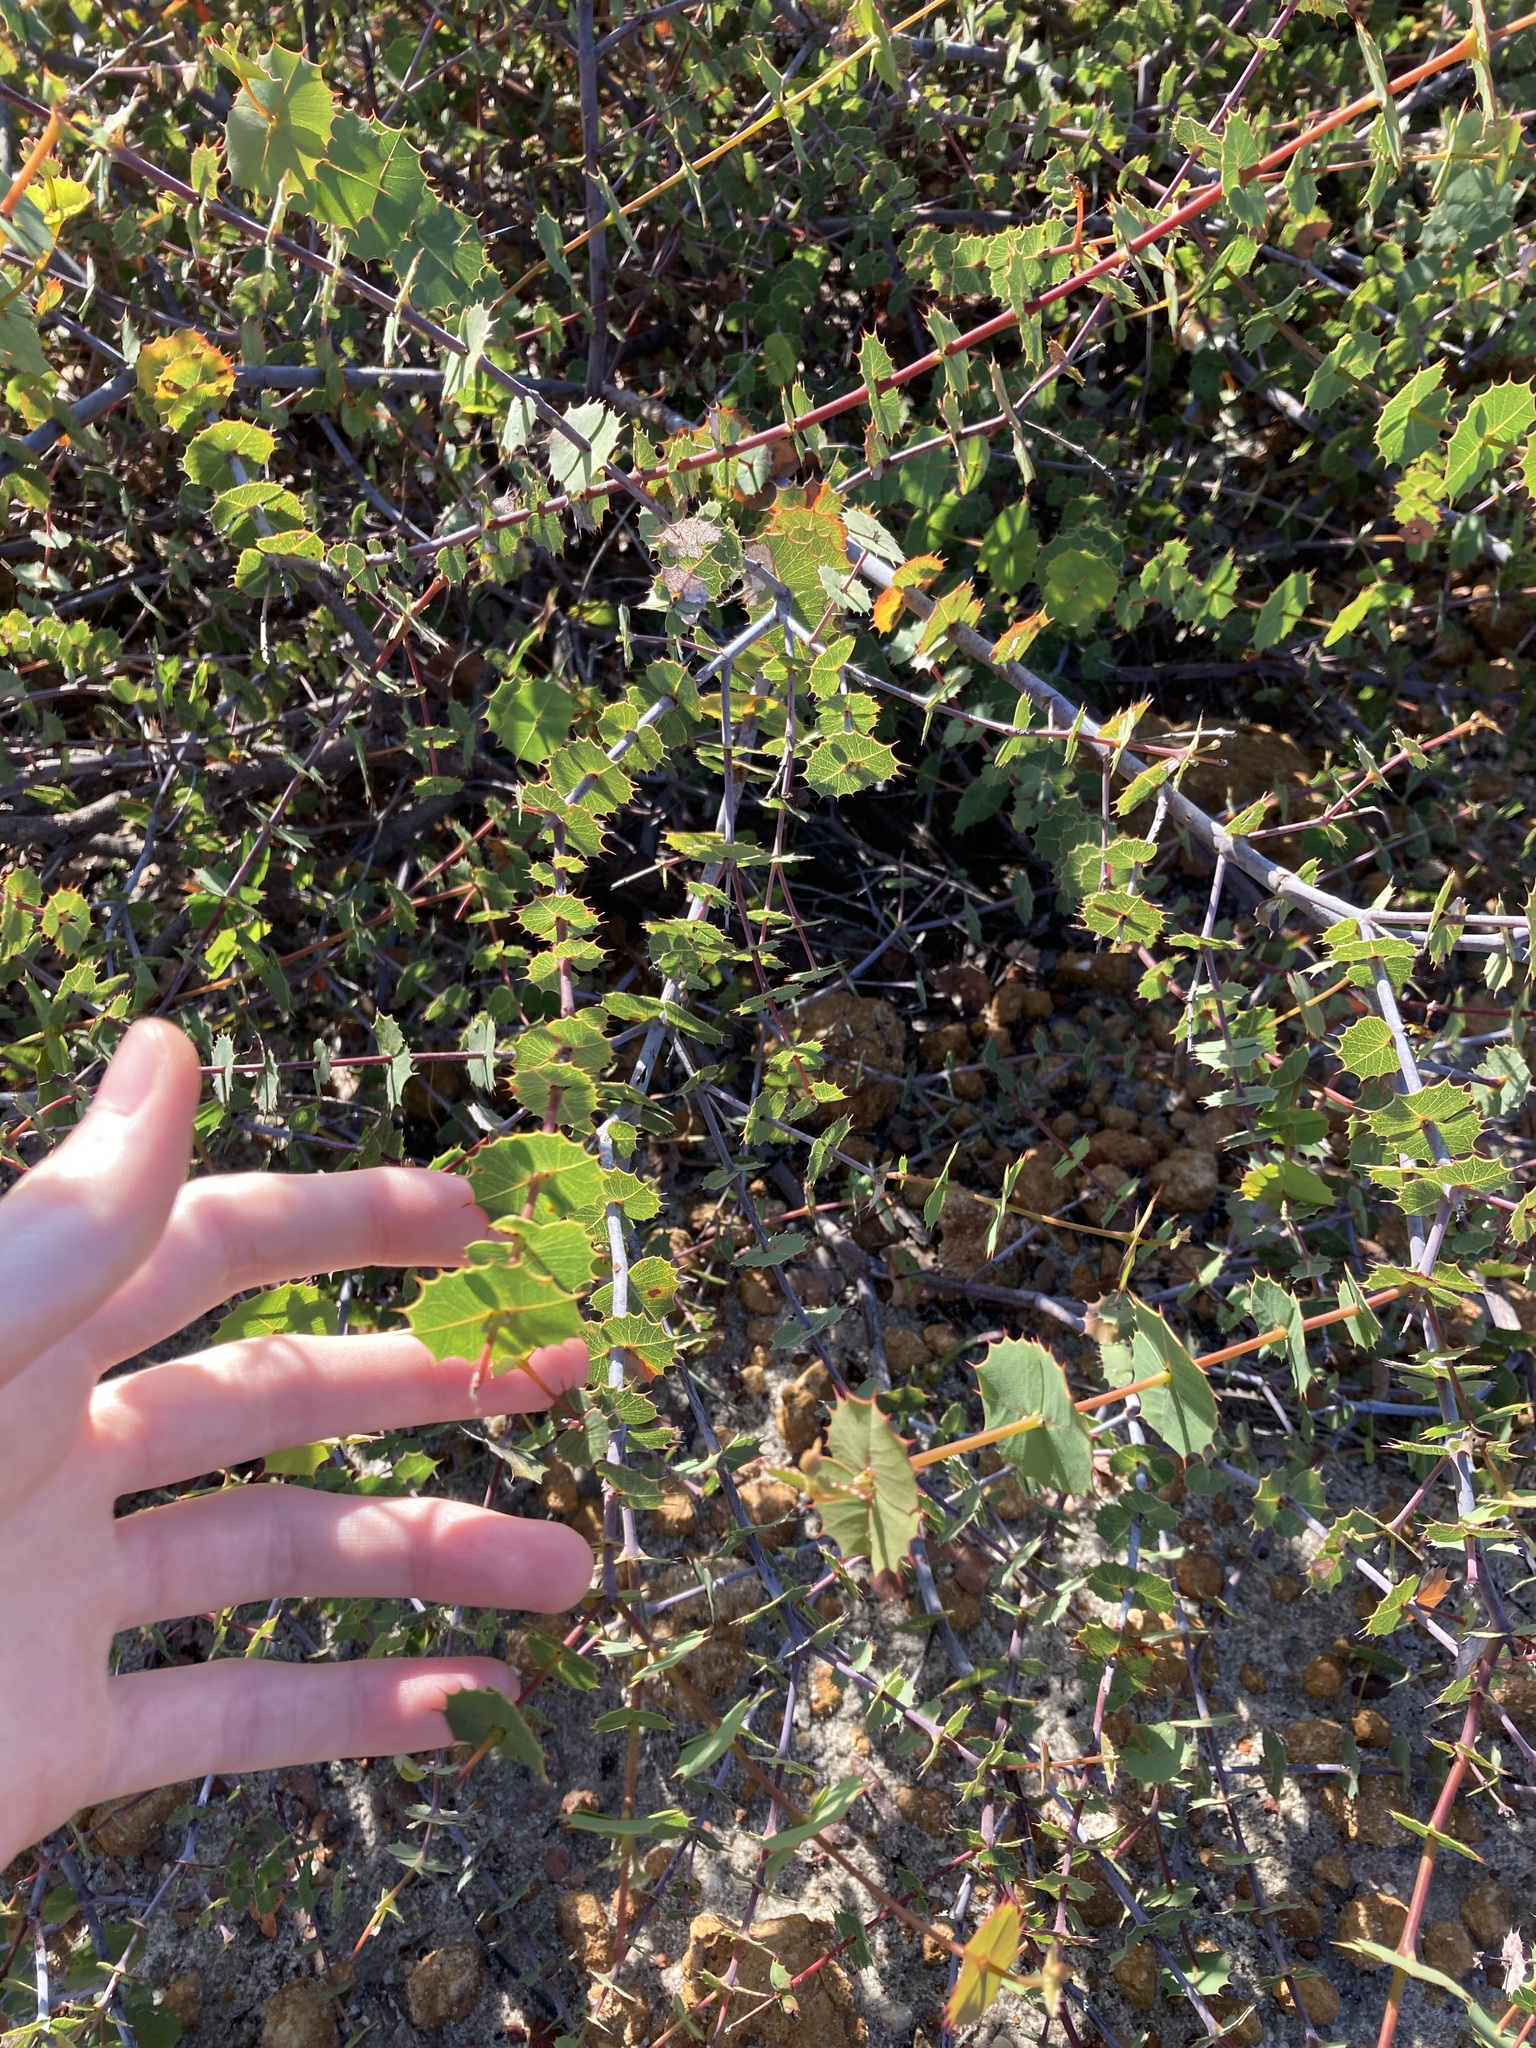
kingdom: Plantae
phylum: Tracheophyta
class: Magnoliopsida
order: Fabales
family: Fabaceae
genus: Gastrolobium
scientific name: Gastrolobium spinosum
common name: Prickly poison
